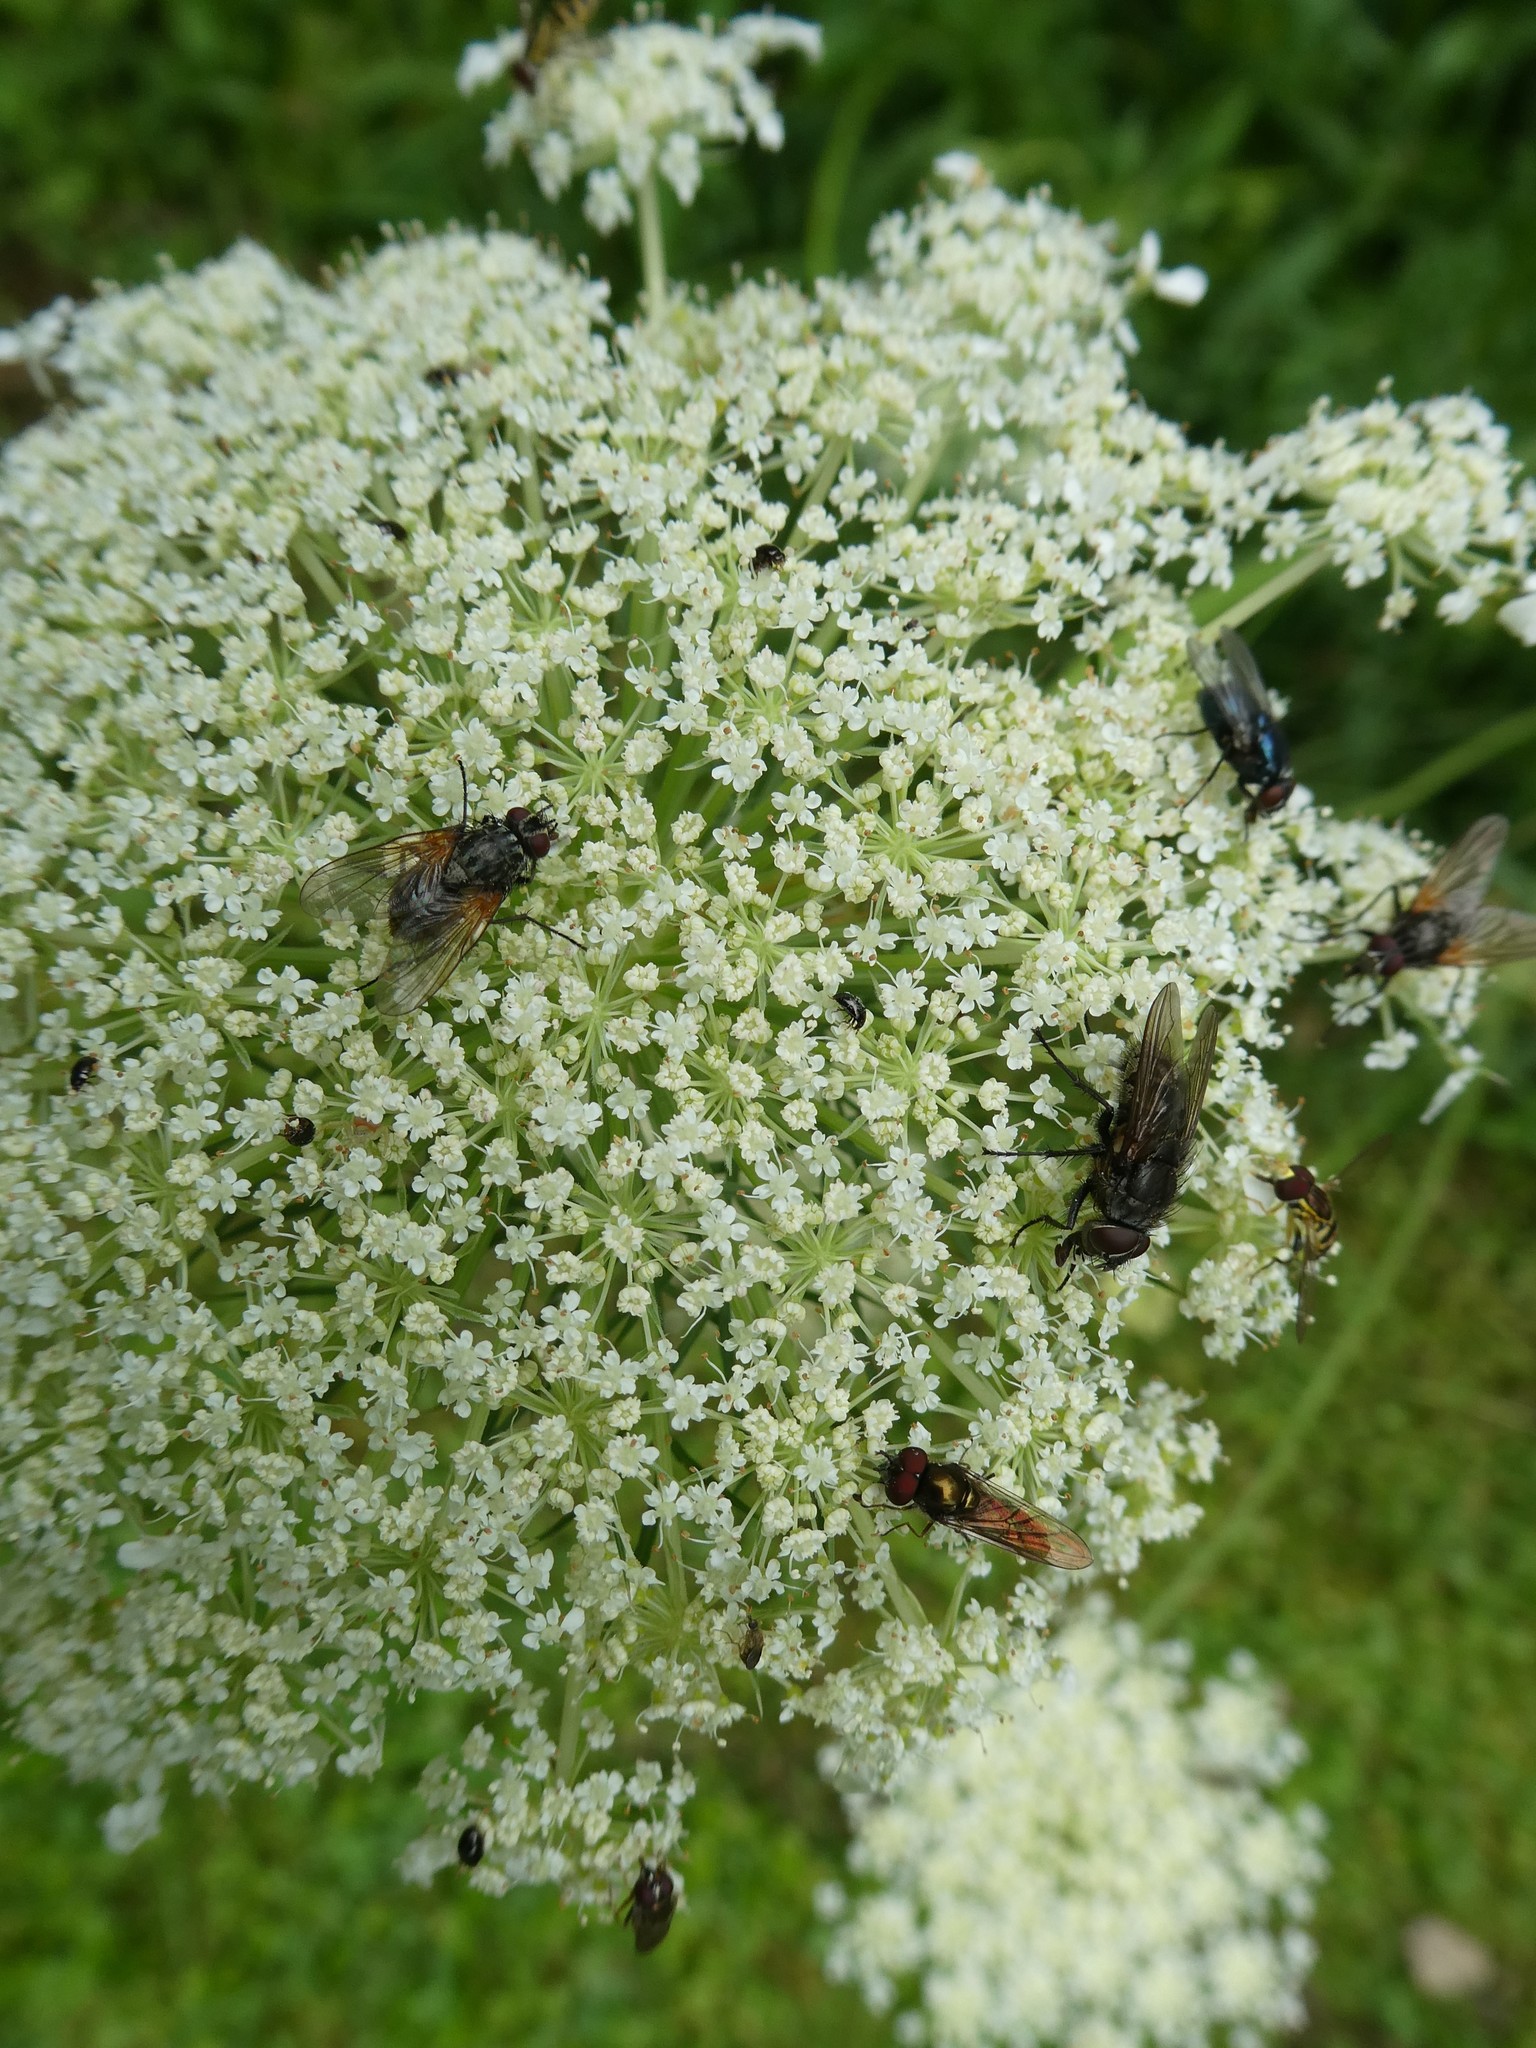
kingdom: Plantae
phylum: Tracheophyta
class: Magnoliopsida
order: Apiales
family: Apiaceae
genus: Daucus
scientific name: Daucus carota
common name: Wild carrot
